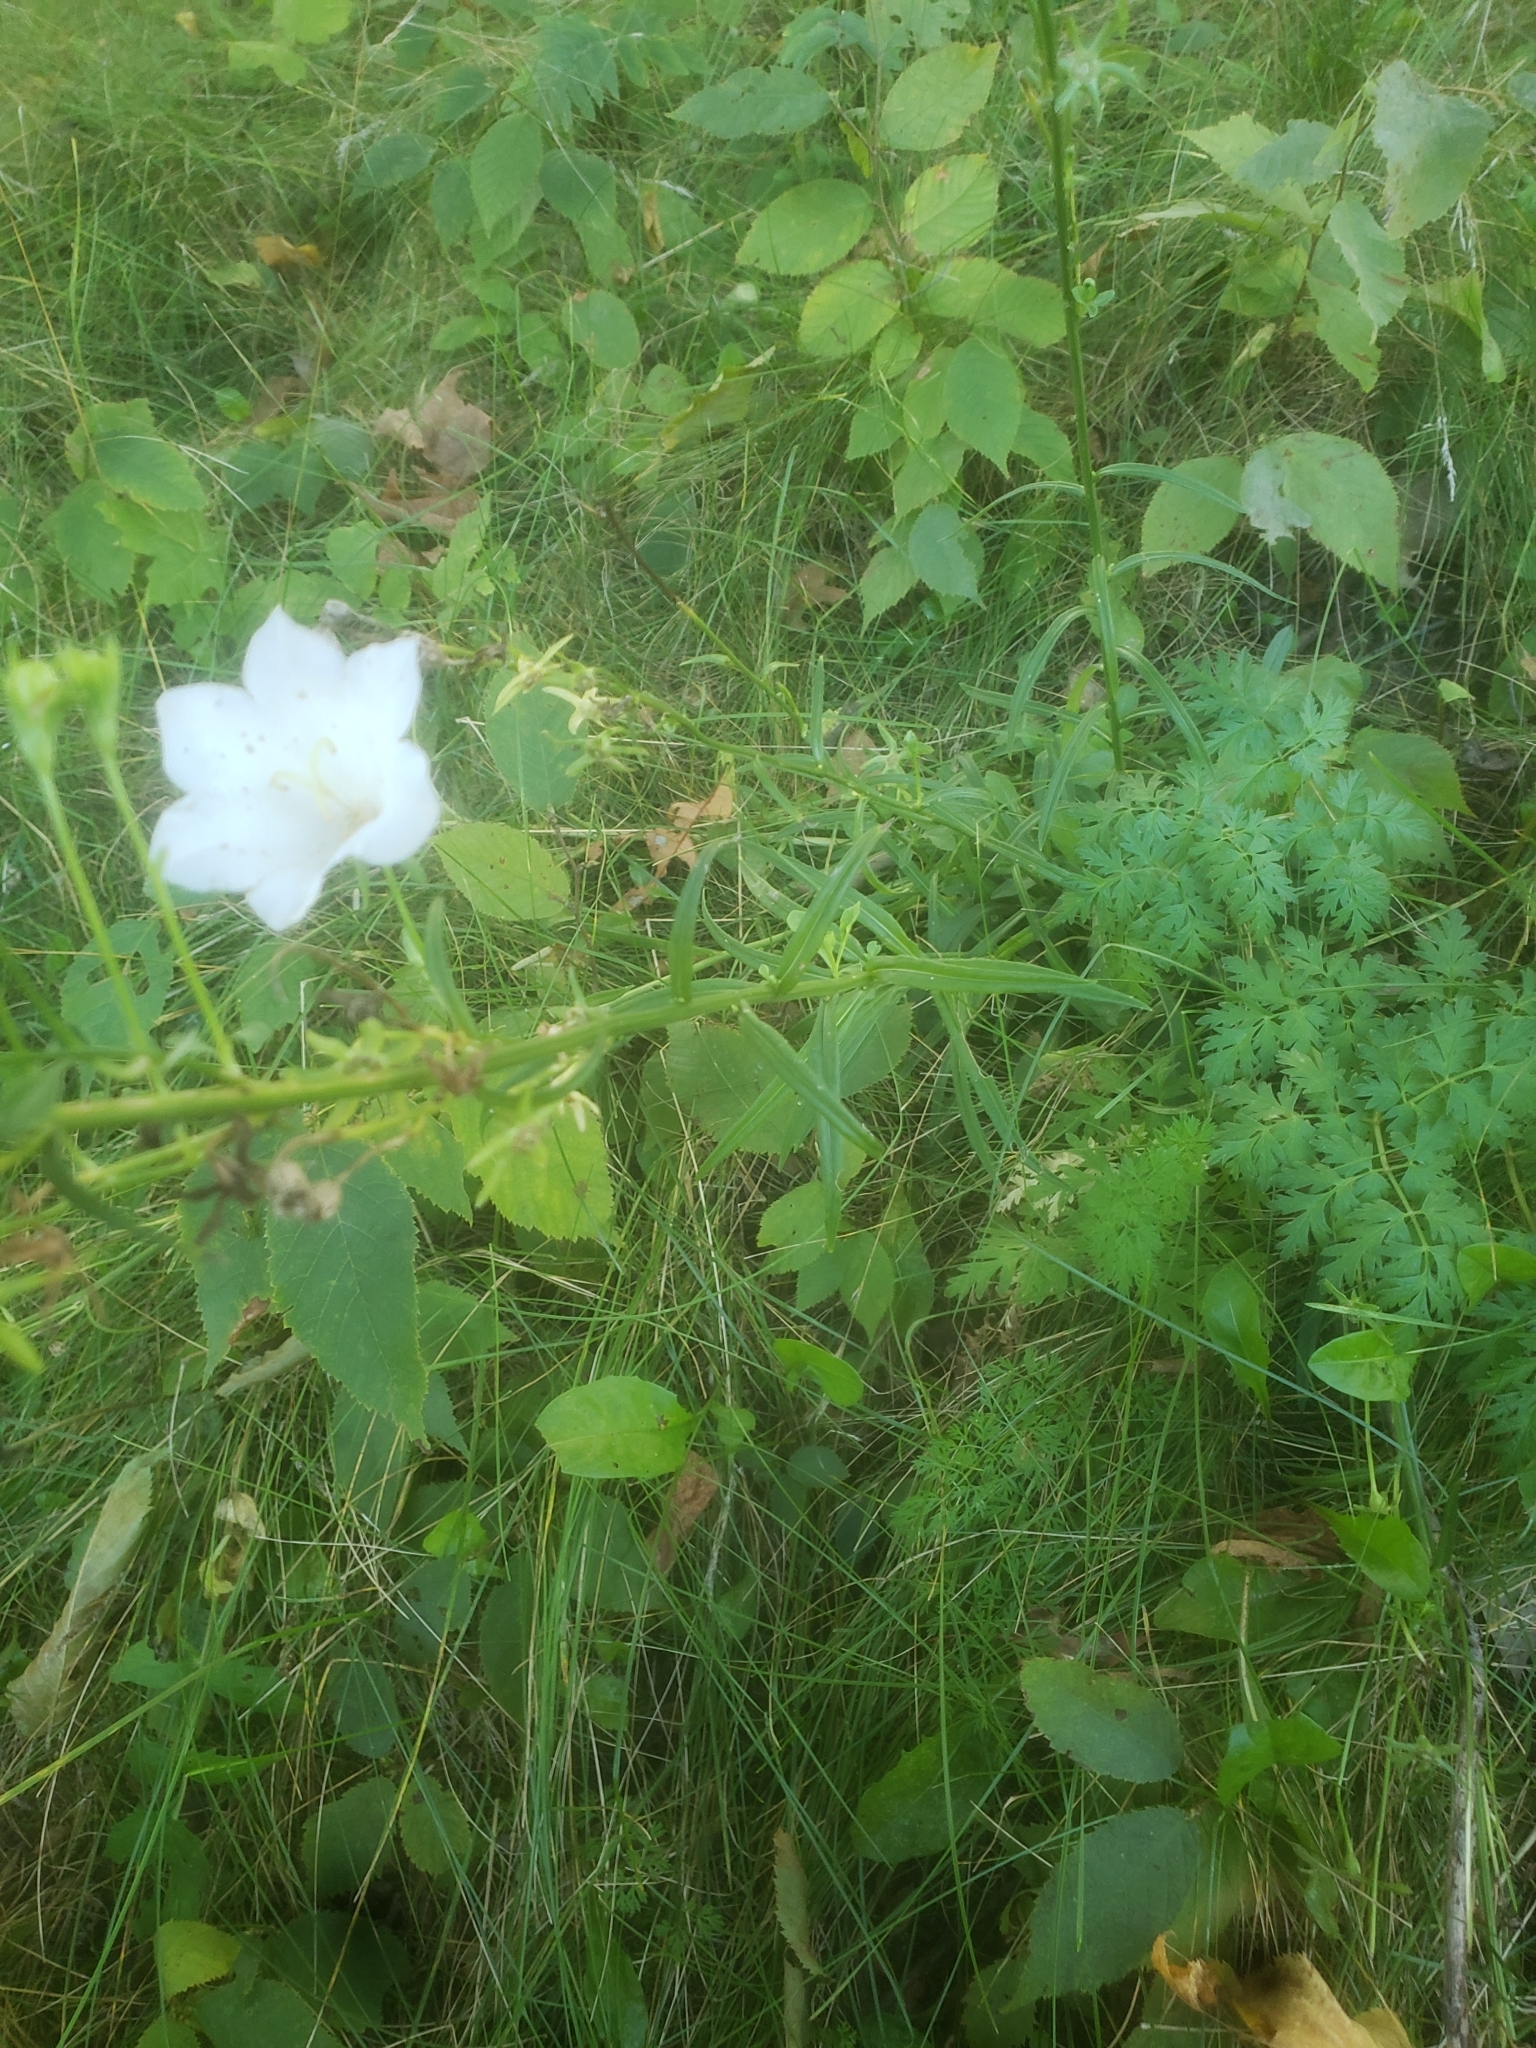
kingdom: Plantae
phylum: Tracheophyta
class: Magnoliopsida
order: Asterales
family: Campanulaceae
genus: Campanula
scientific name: Campanula persicifolia
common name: Peach-leaved bellflower
